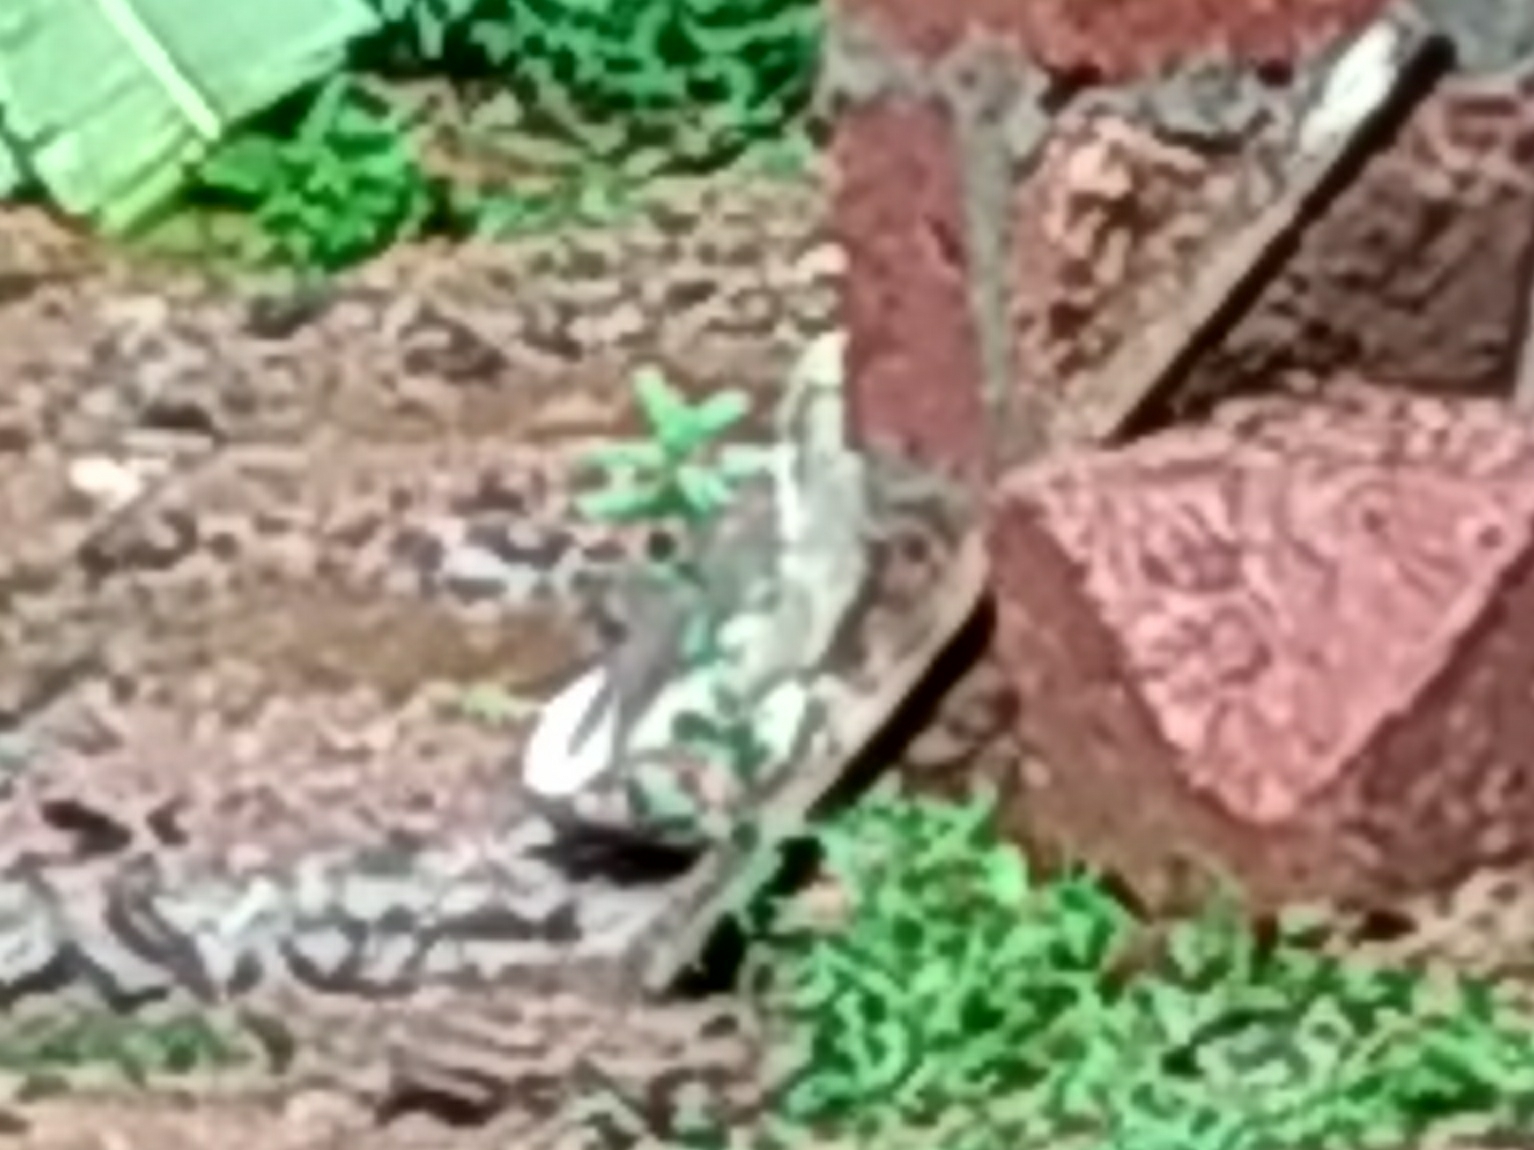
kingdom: Animalia
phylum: Chordata
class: Aves
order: Pelecaniformes
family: Ardeidae
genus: Ardeola
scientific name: Ardeola grayii
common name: Indian pond heron
